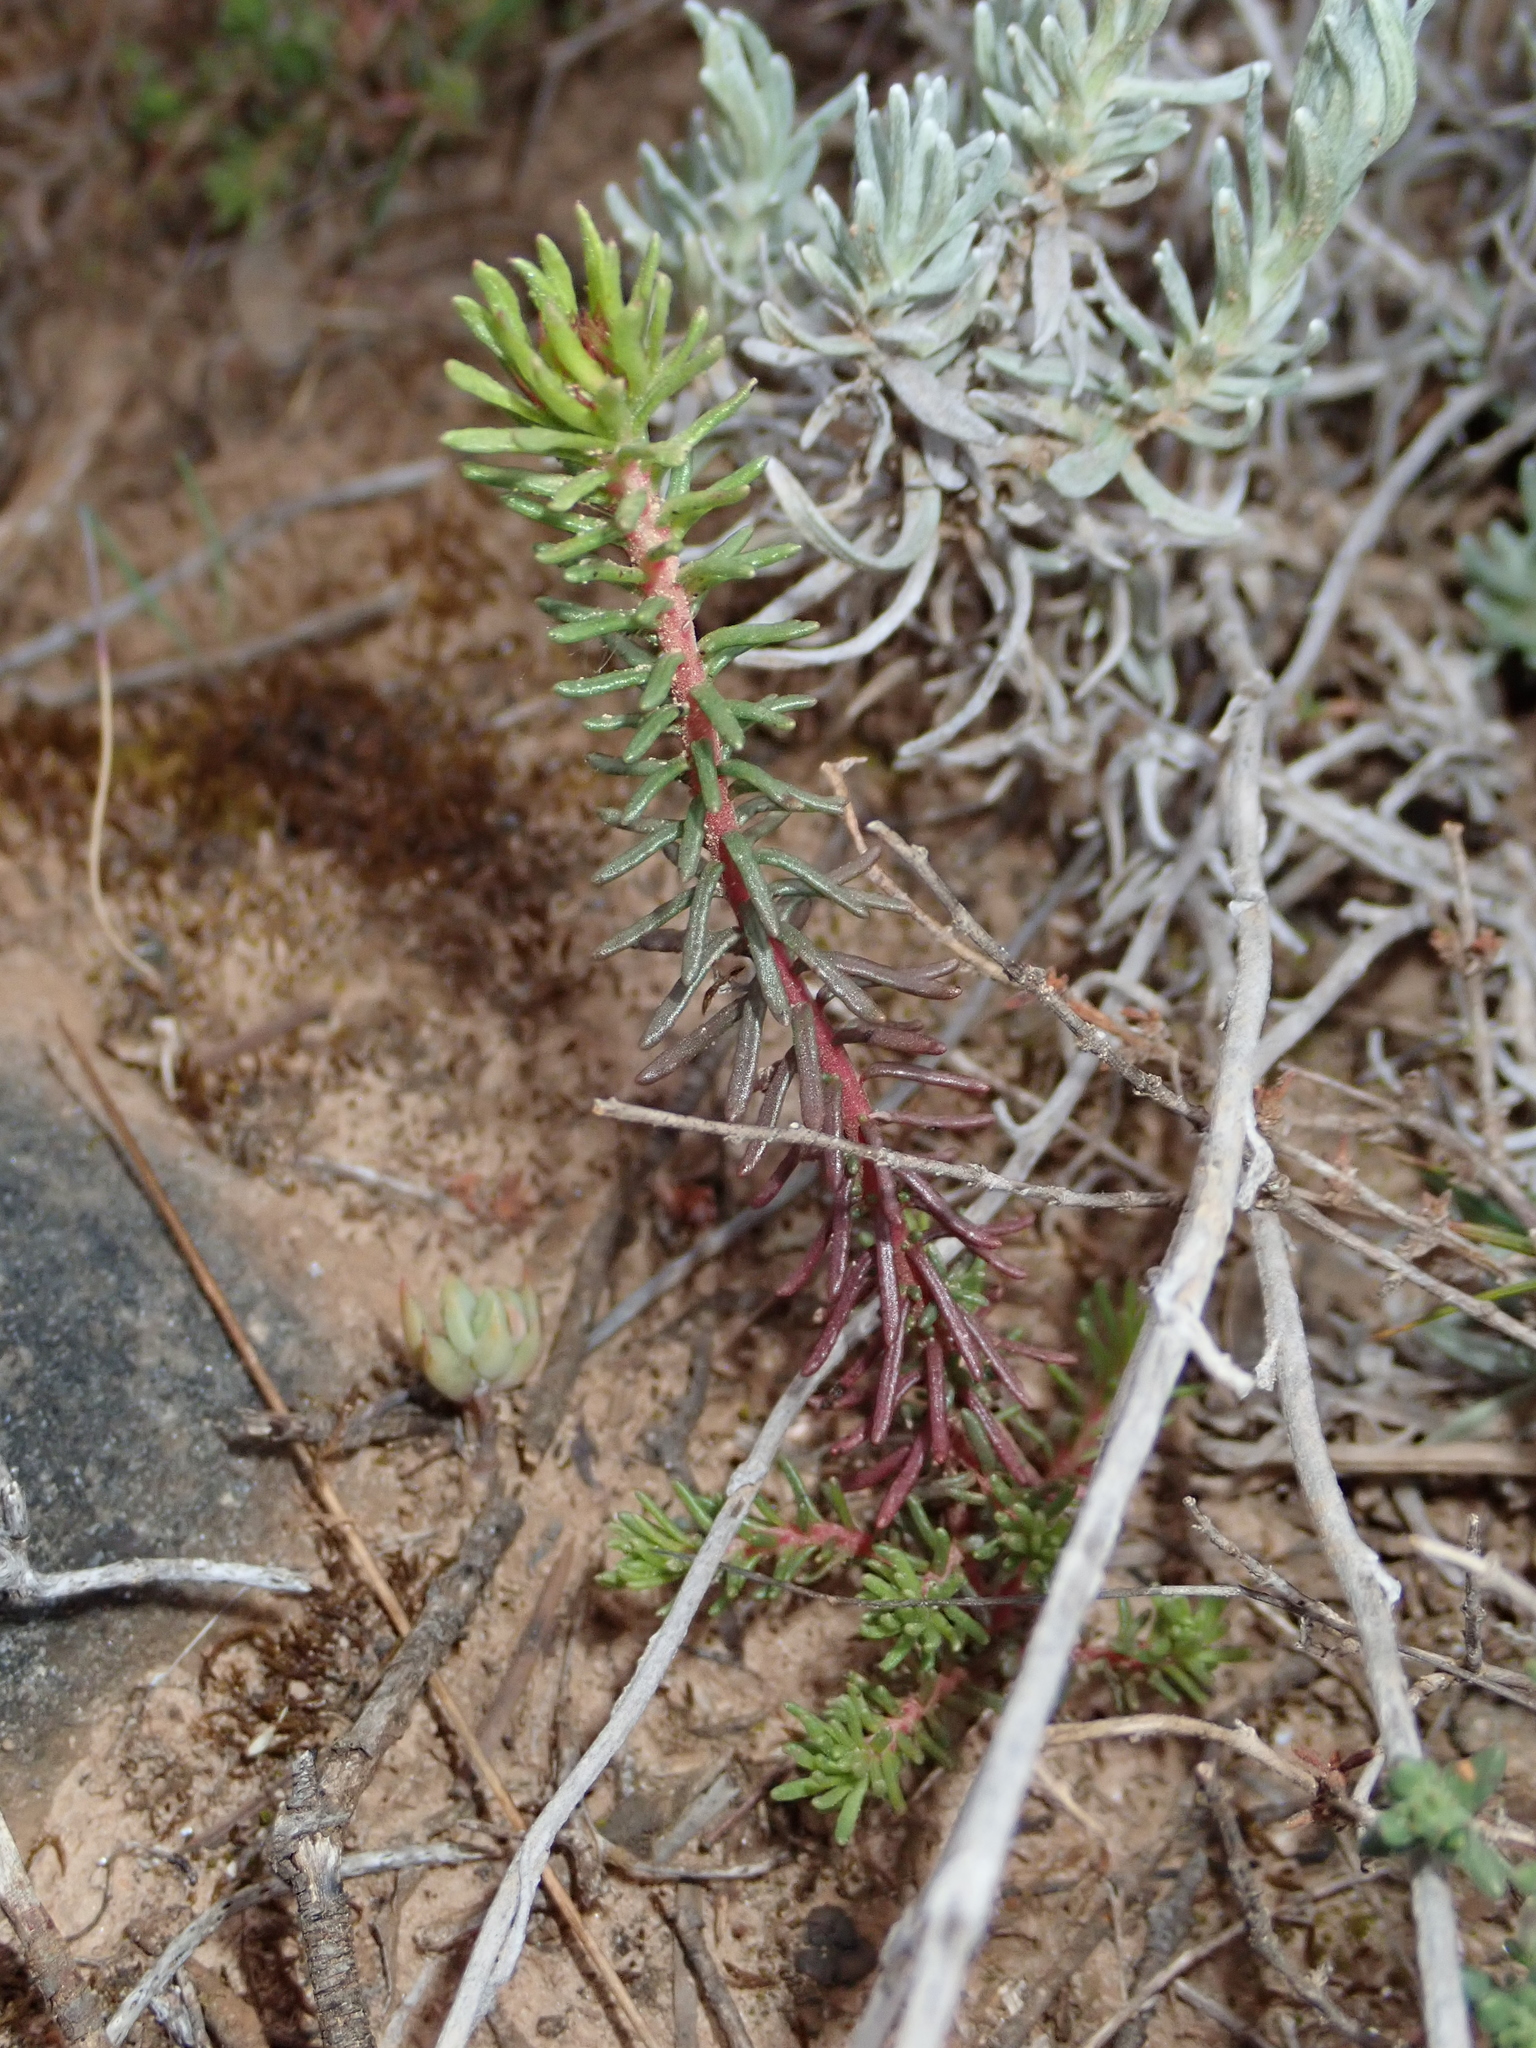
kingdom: Plantae
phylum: Tracheophyta
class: Magnoliopsida
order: Ericales
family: Primulaceae
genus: Coris
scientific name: Coris monspeliensis
